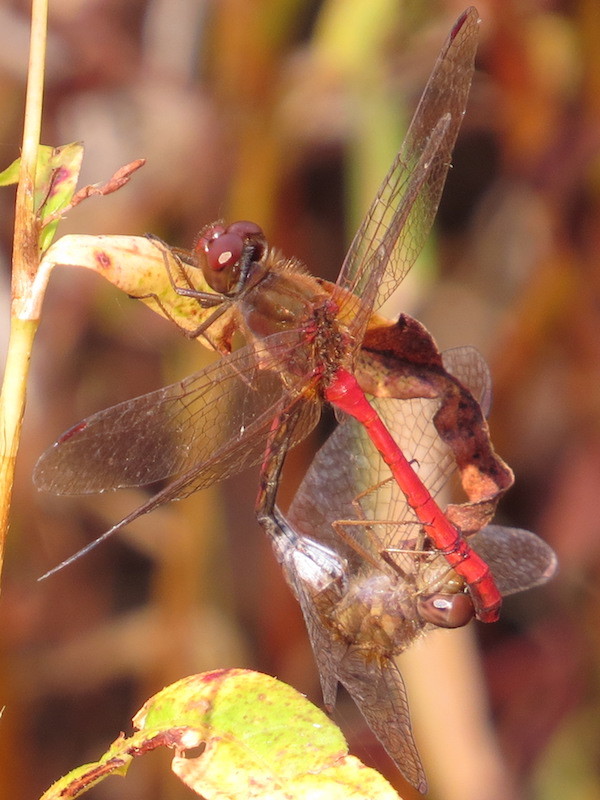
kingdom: Animalia
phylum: Arthropoda
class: Insecta
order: Odonata
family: Libellulidae
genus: Sympetrum
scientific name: Sympetrum vicinum
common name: Autumn meadowhawk
